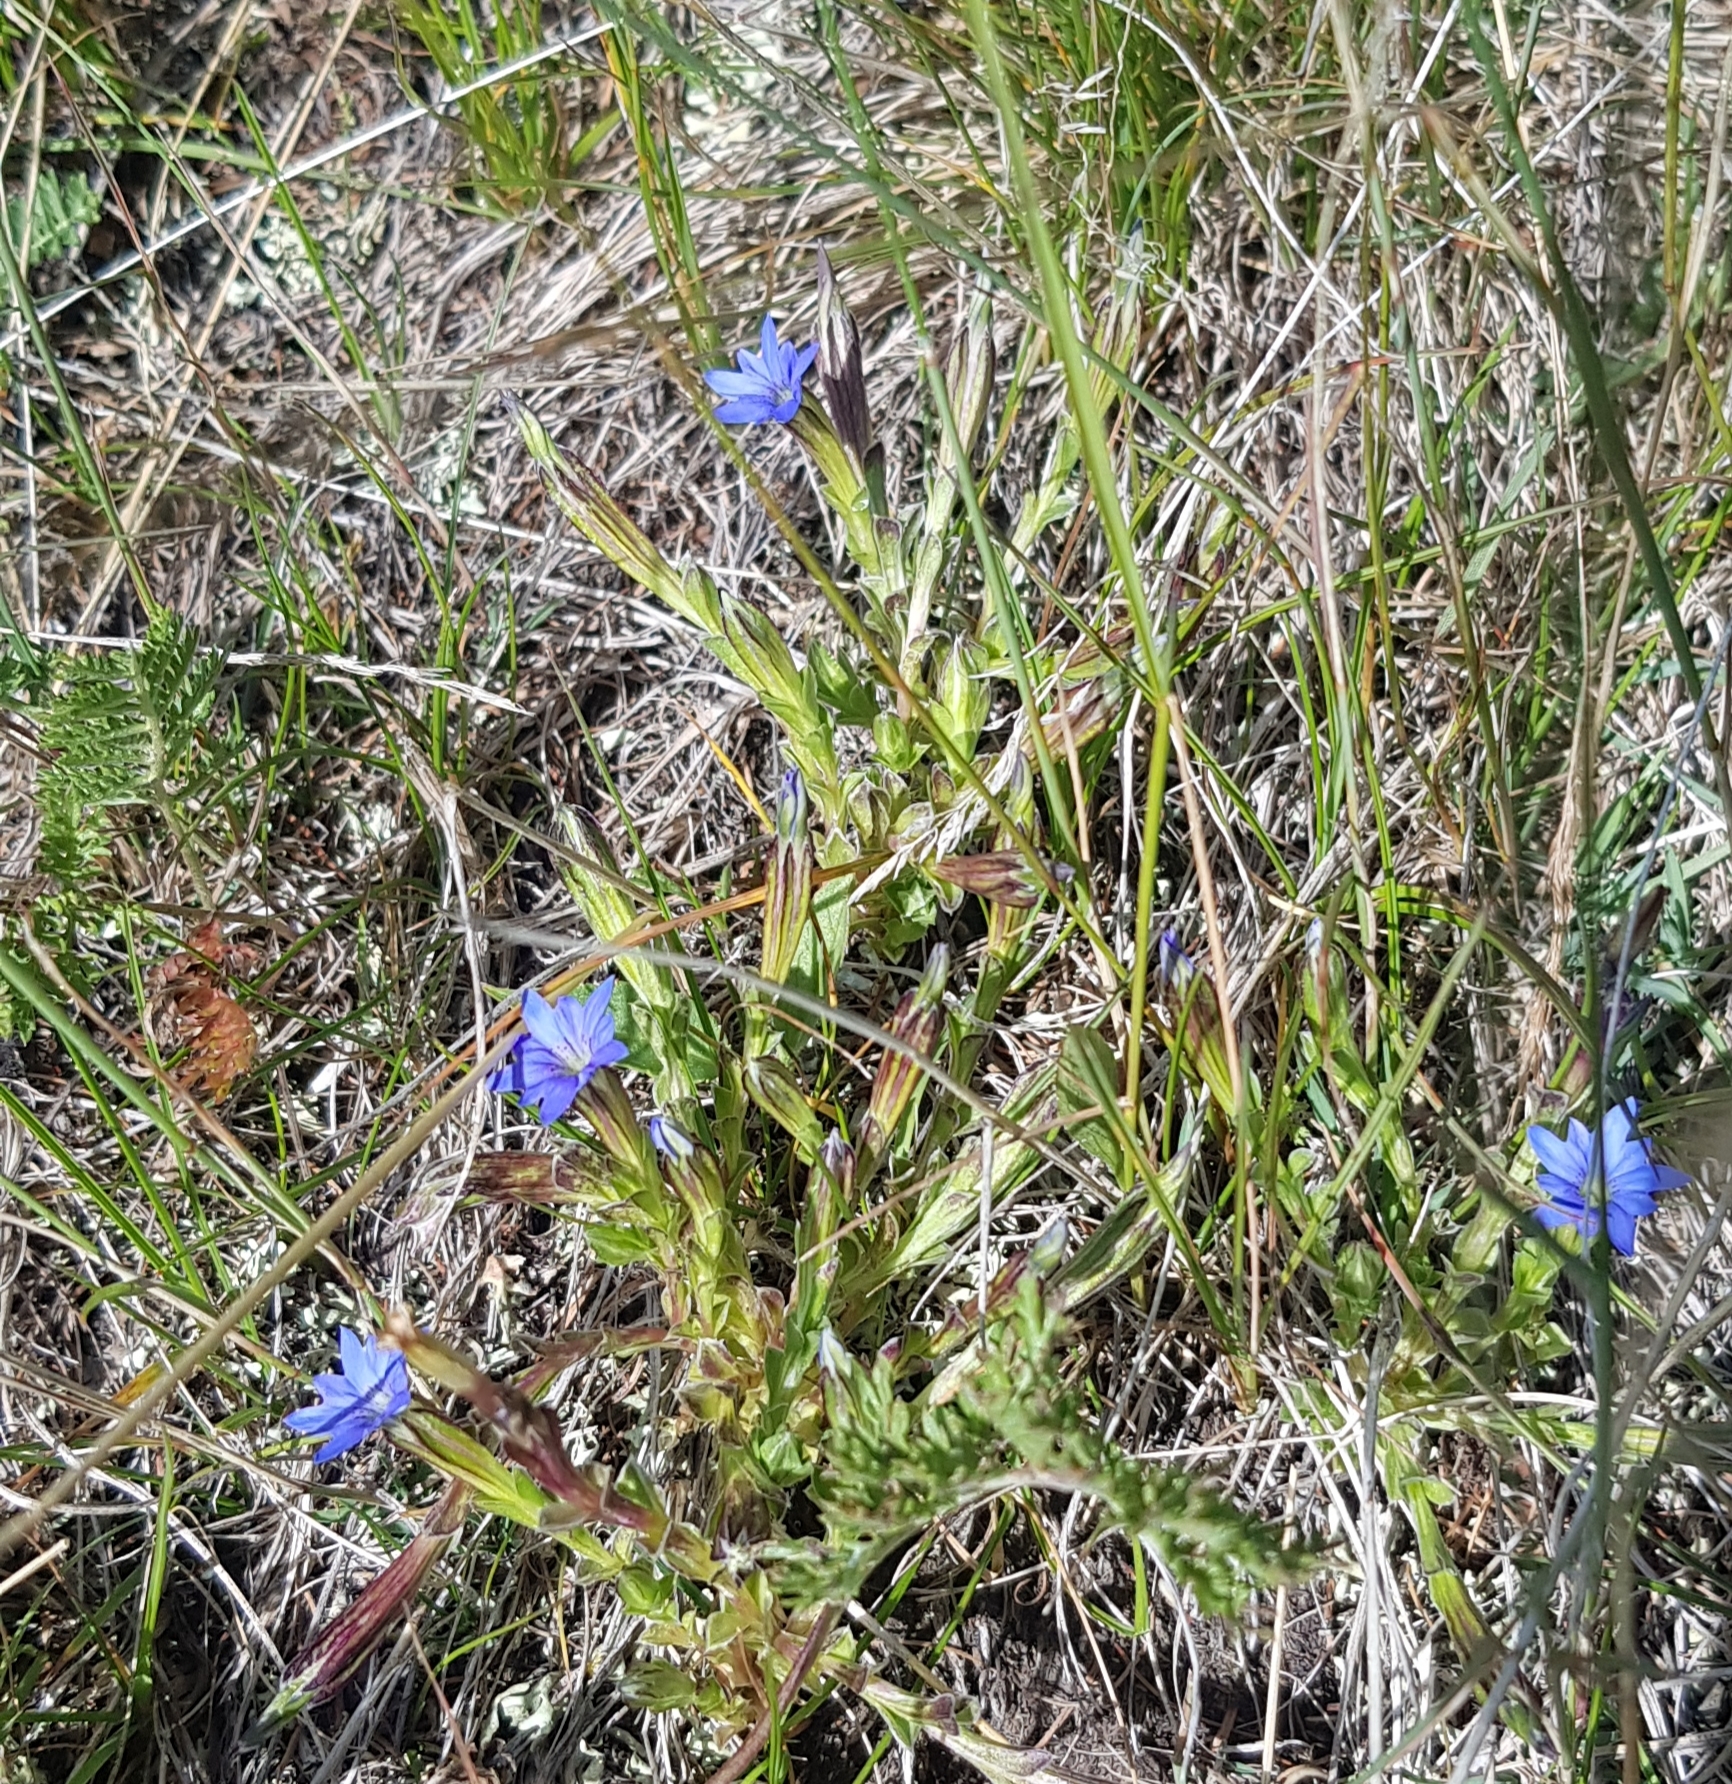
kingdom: Plantae
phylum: Tracheophyta
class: Magnoliopsida
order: Gentianales
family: Gentianaceae
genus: Gentiana
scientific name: Gentiana squarrosa
